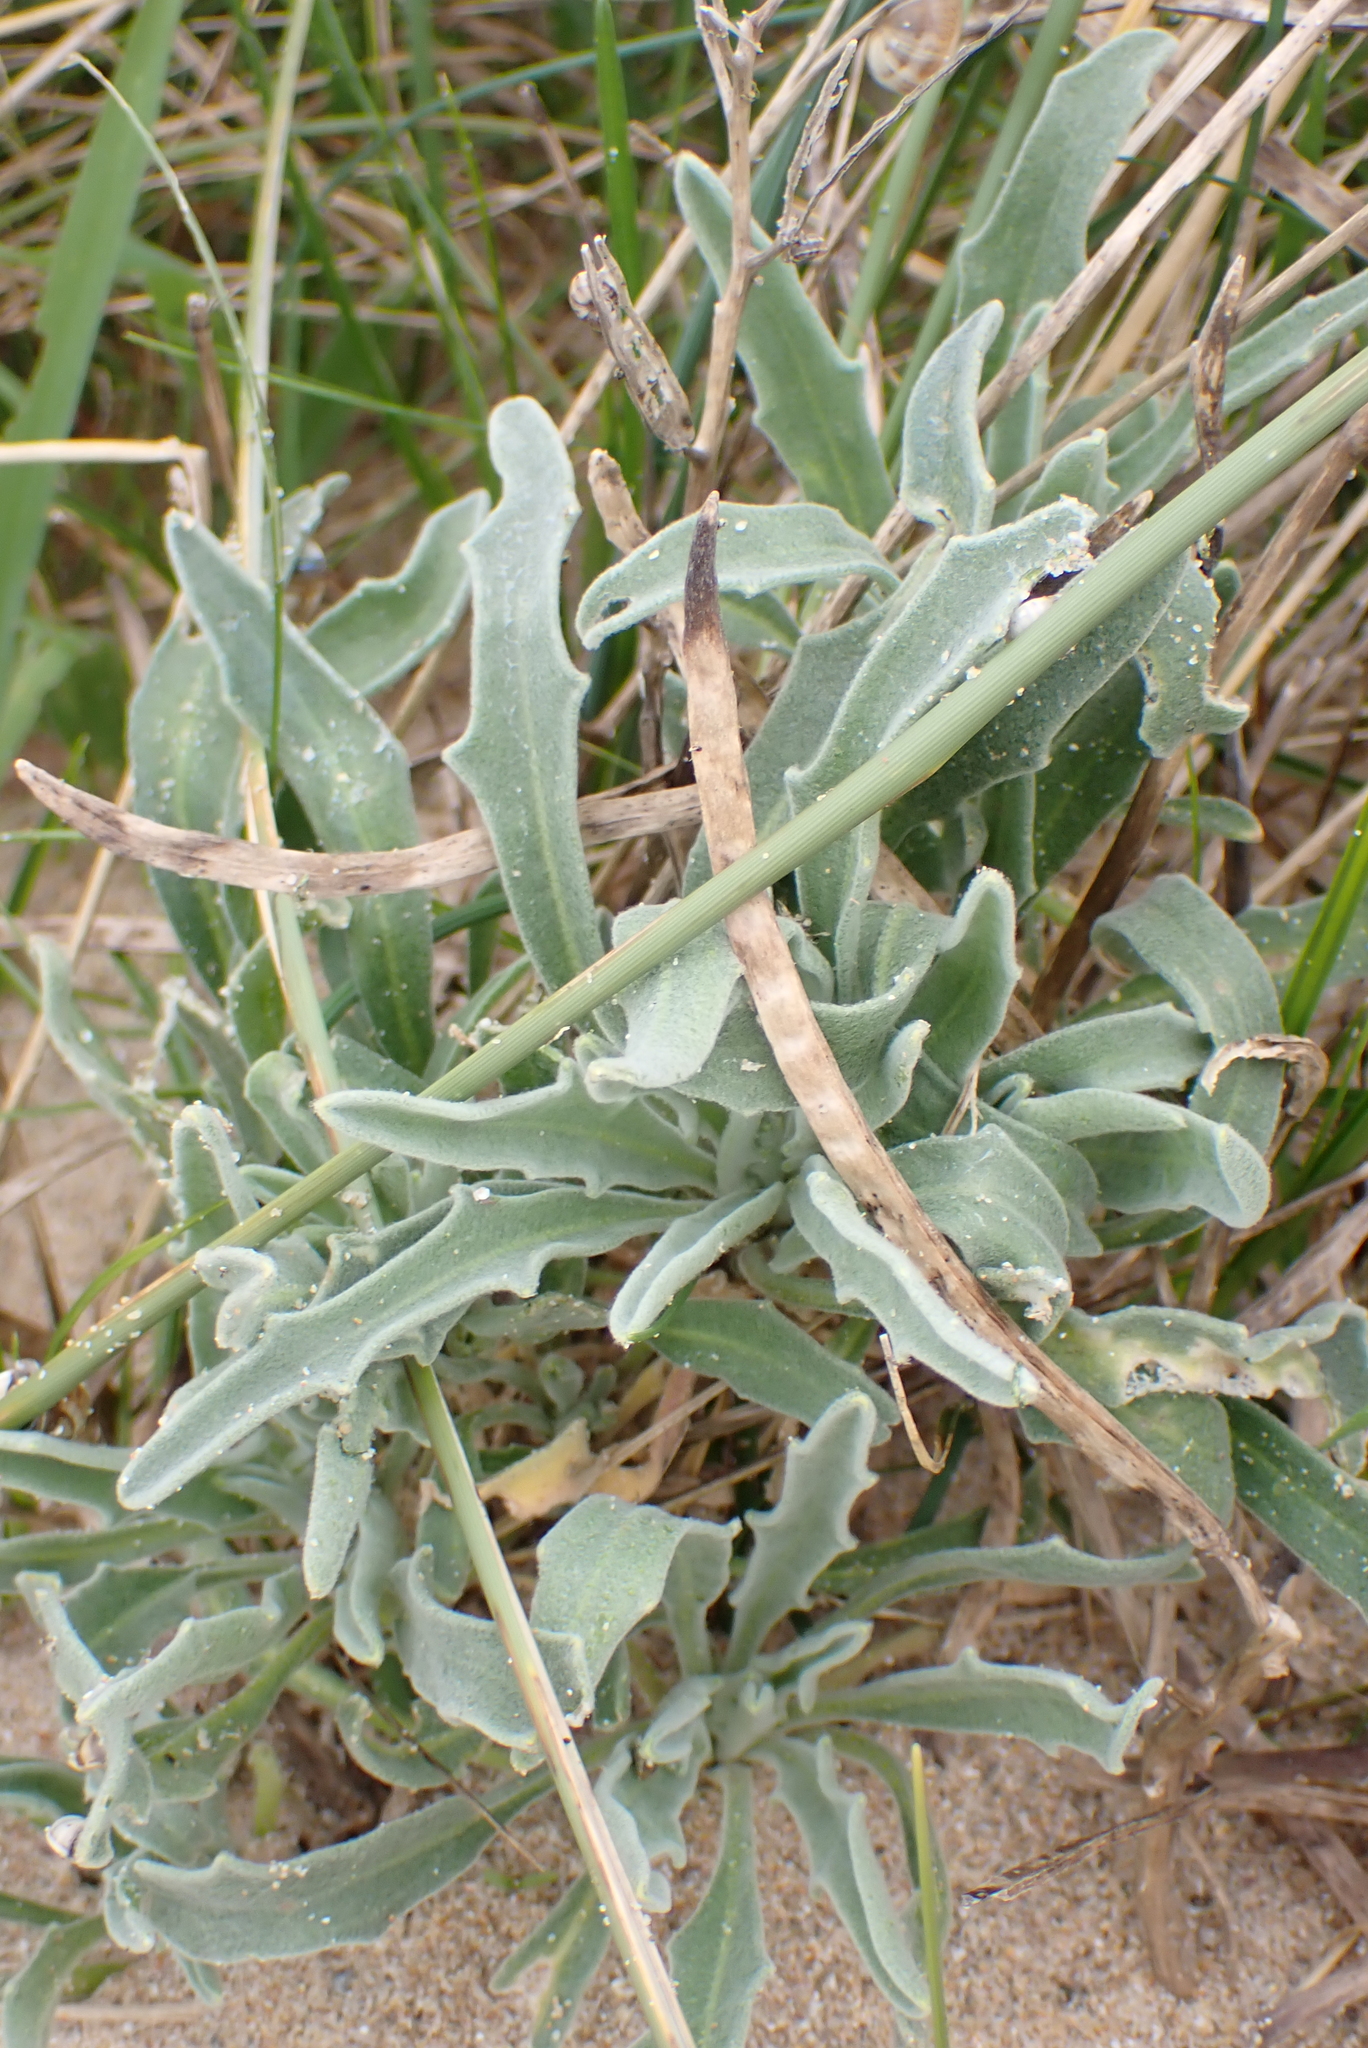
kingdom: Plantae
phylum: Tracheophyta
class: Magnoliopsida
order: Brassicales
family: Brassicaceae
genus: Matthiola
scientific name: Matthiola sinuata
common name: Sea stock
